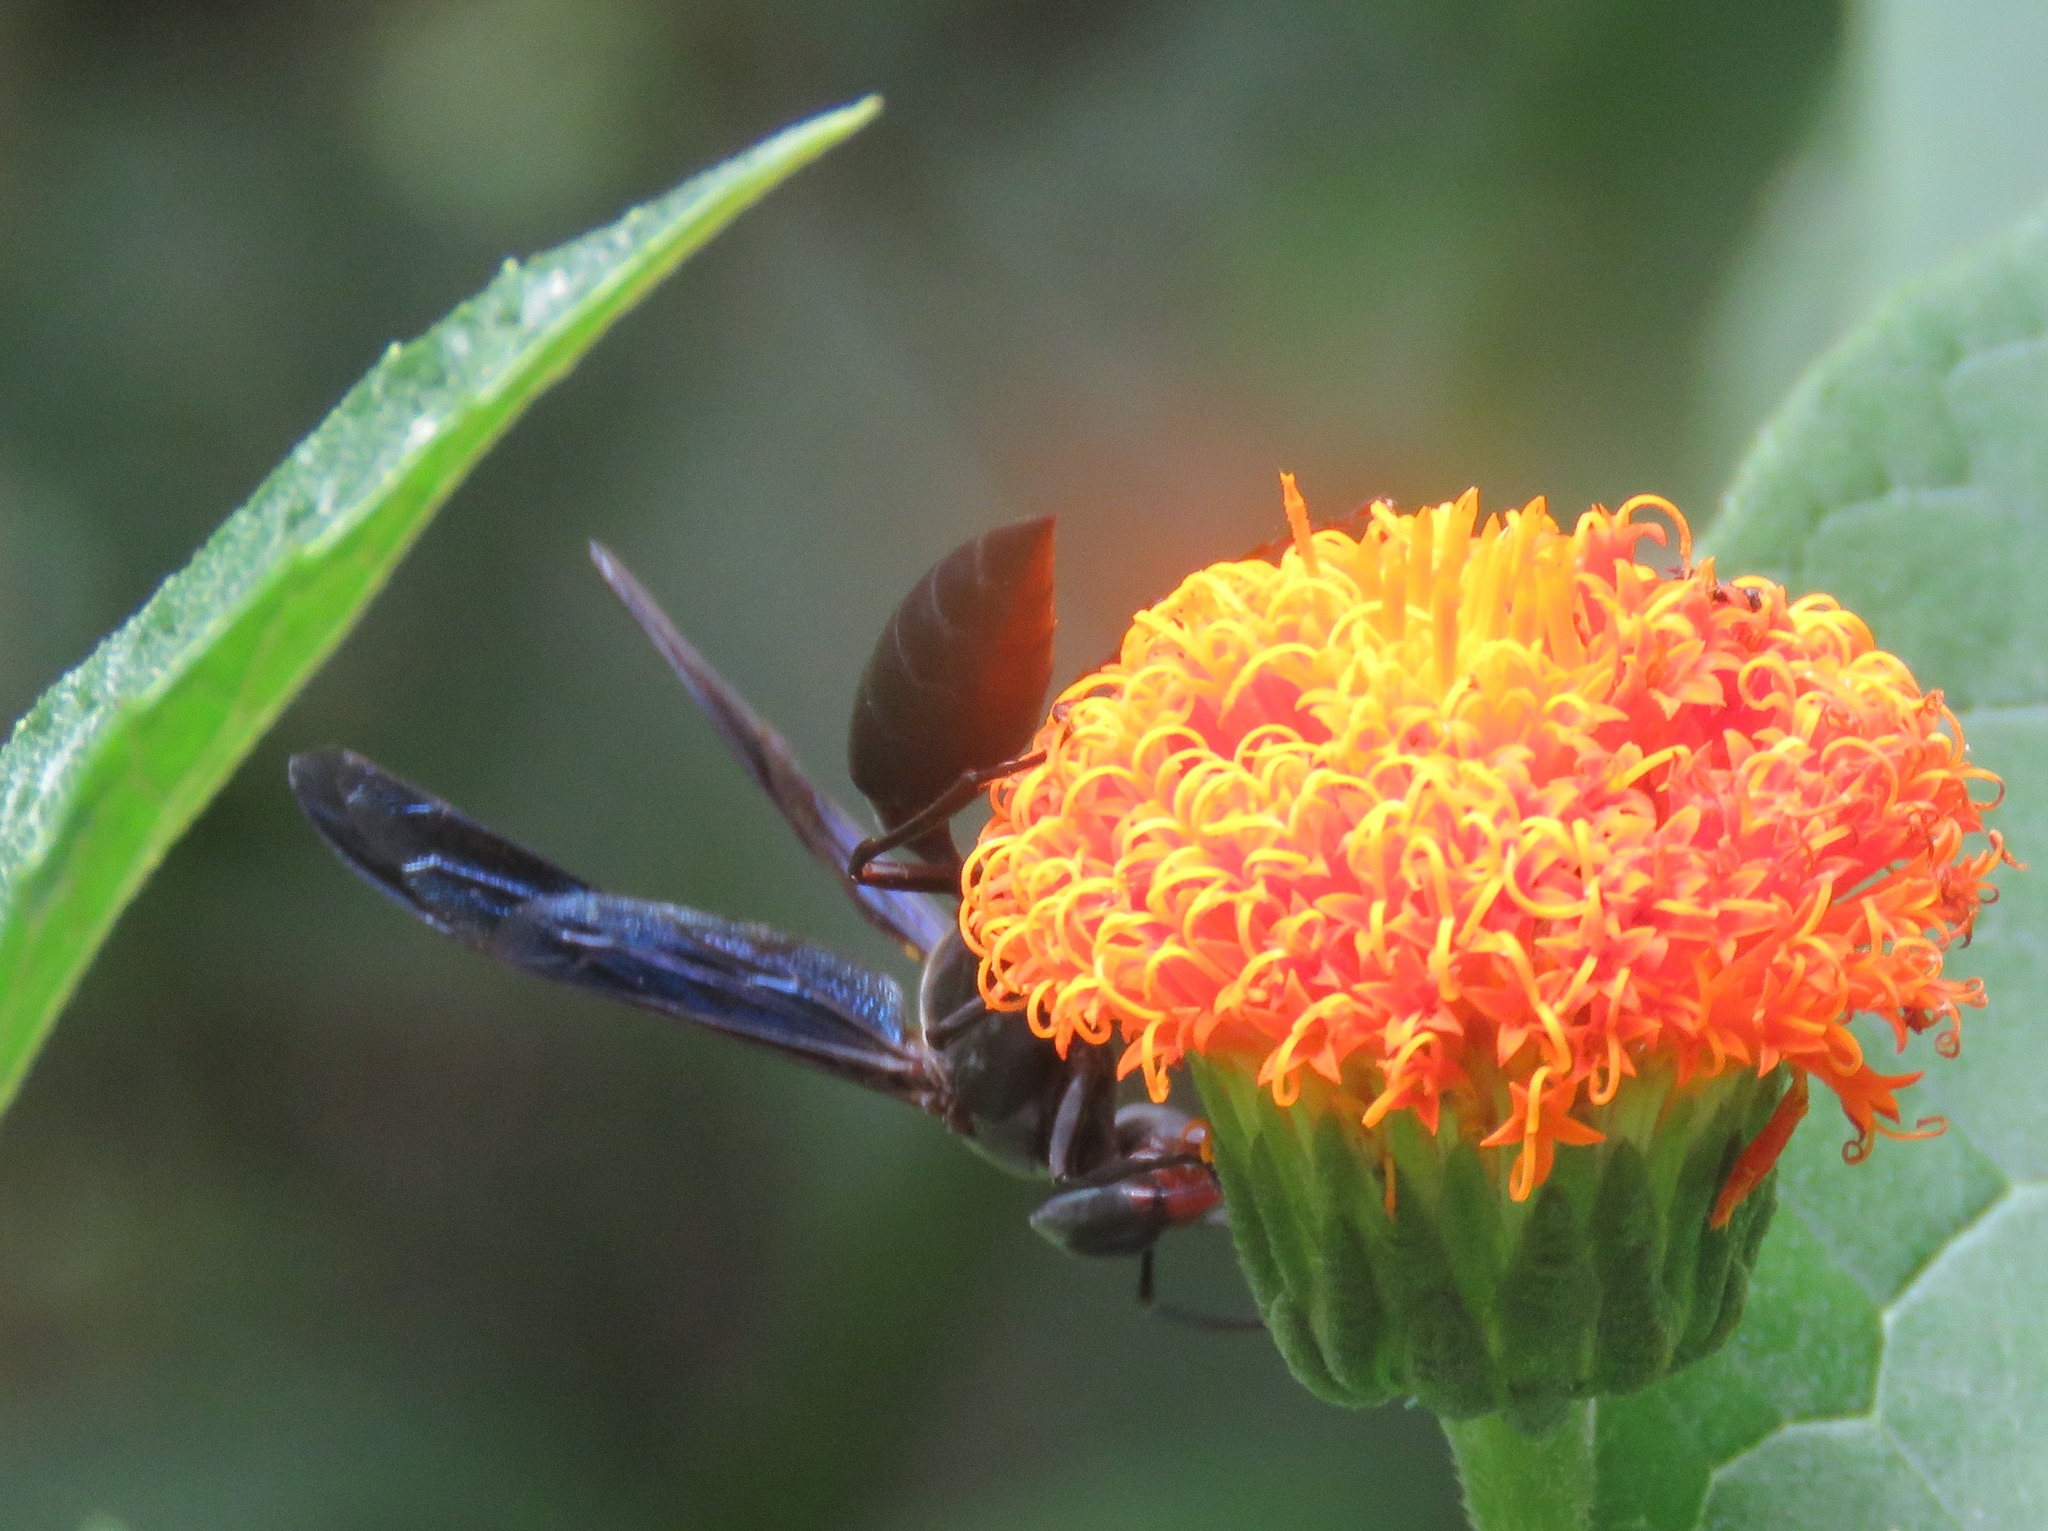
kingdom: Animalia
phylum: Arthropoda
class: Insecta
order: Hymenoptera
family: Vespidae
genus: Synoeca
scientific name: Synoeca septentrionalis
